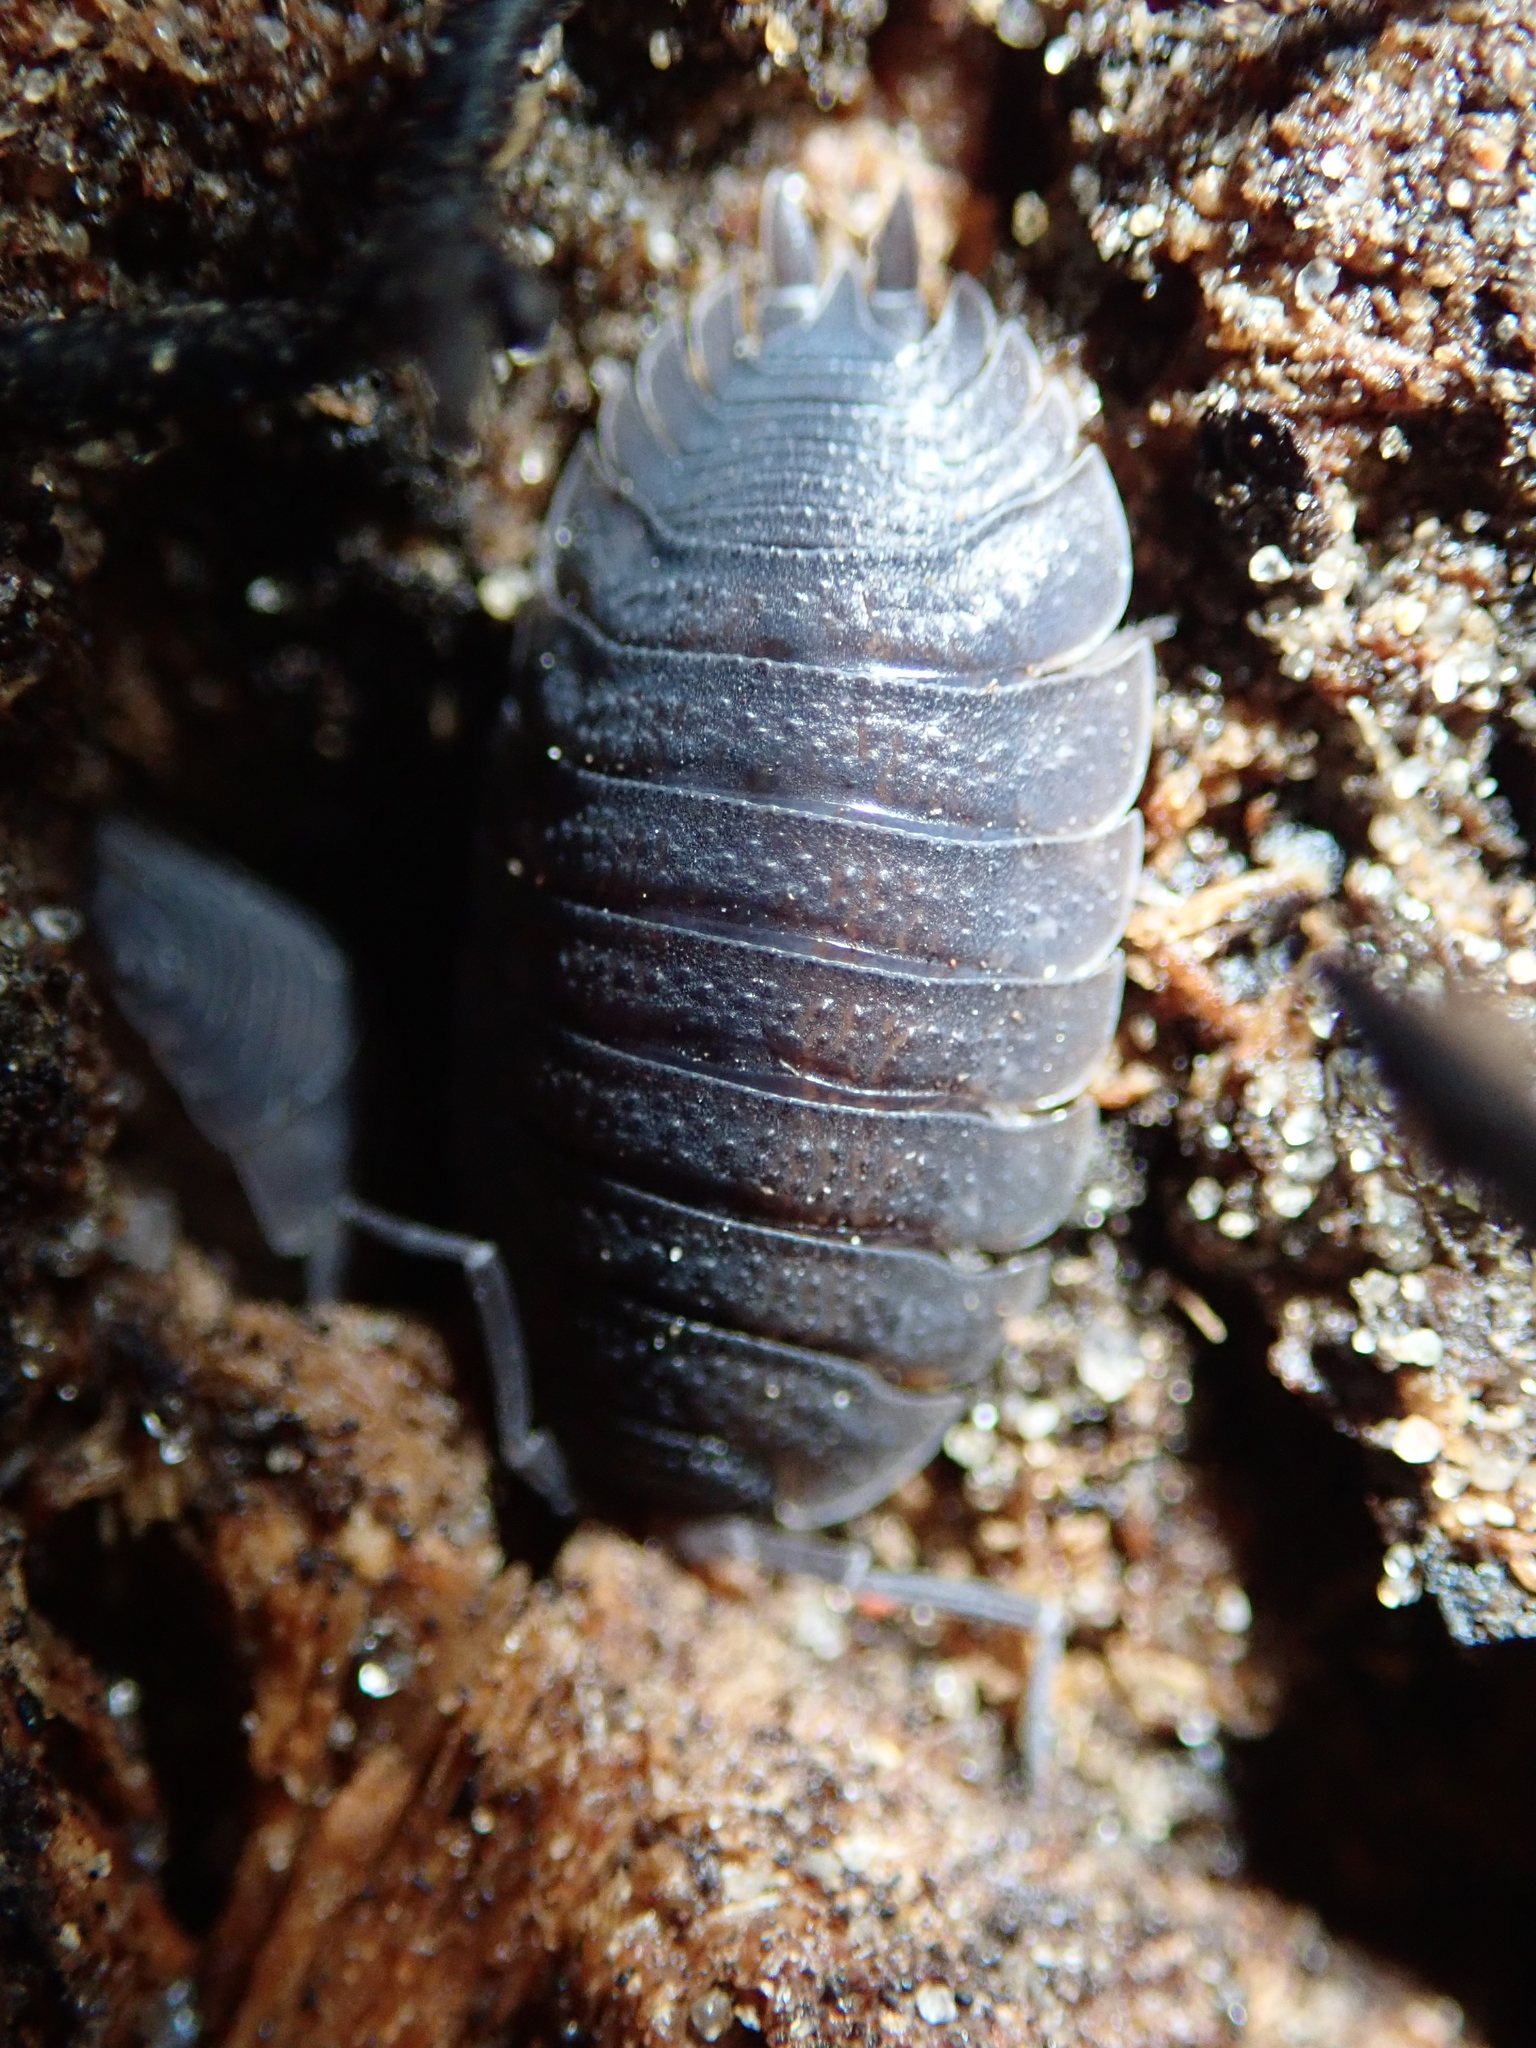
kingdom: Animalia
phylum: Arthropoda
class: Malacostraca
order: Isopoda
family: Porcellionidae
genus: Porcellio
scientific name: Porcellio scaber
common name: Common rough woodlouse
